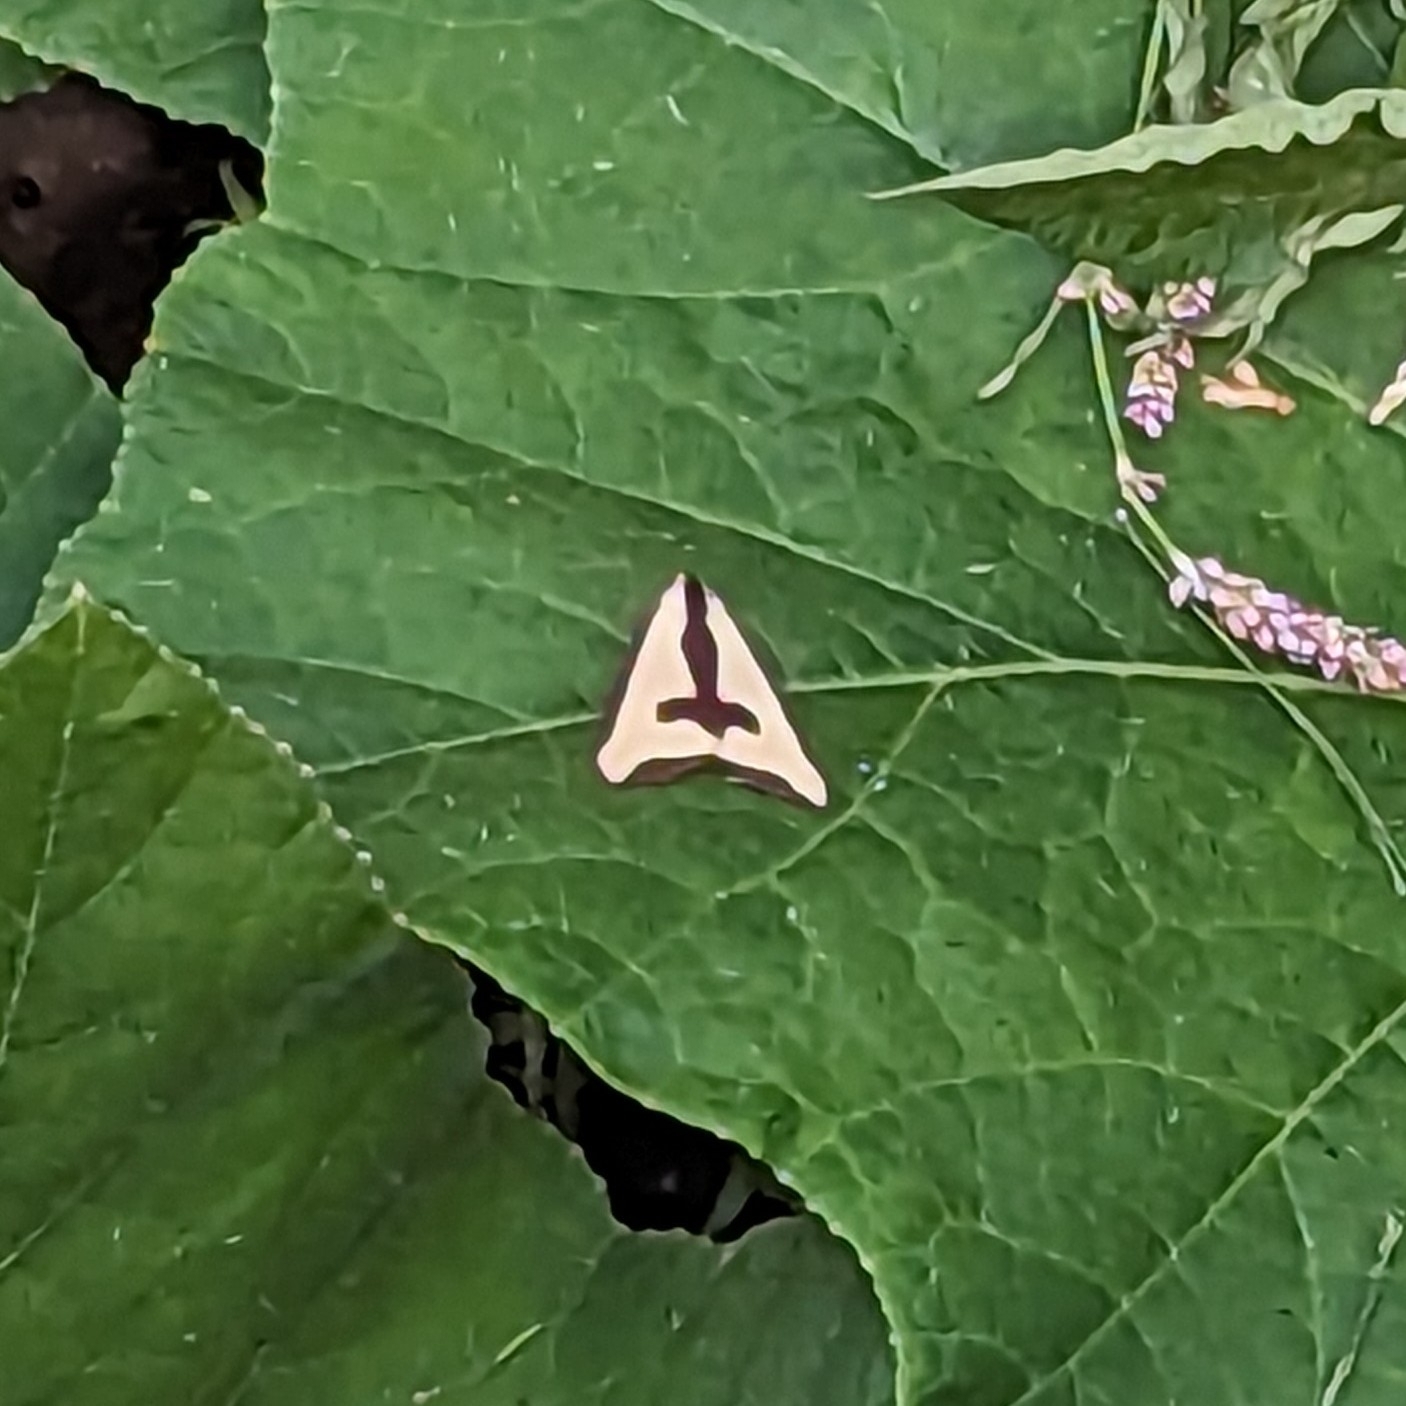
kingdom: Animalia
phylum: Arthropoda
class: Insecta
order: Lepidoptera
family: Erebidae
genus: Haploa
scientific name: Haploa clymene
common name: Clymene moth
